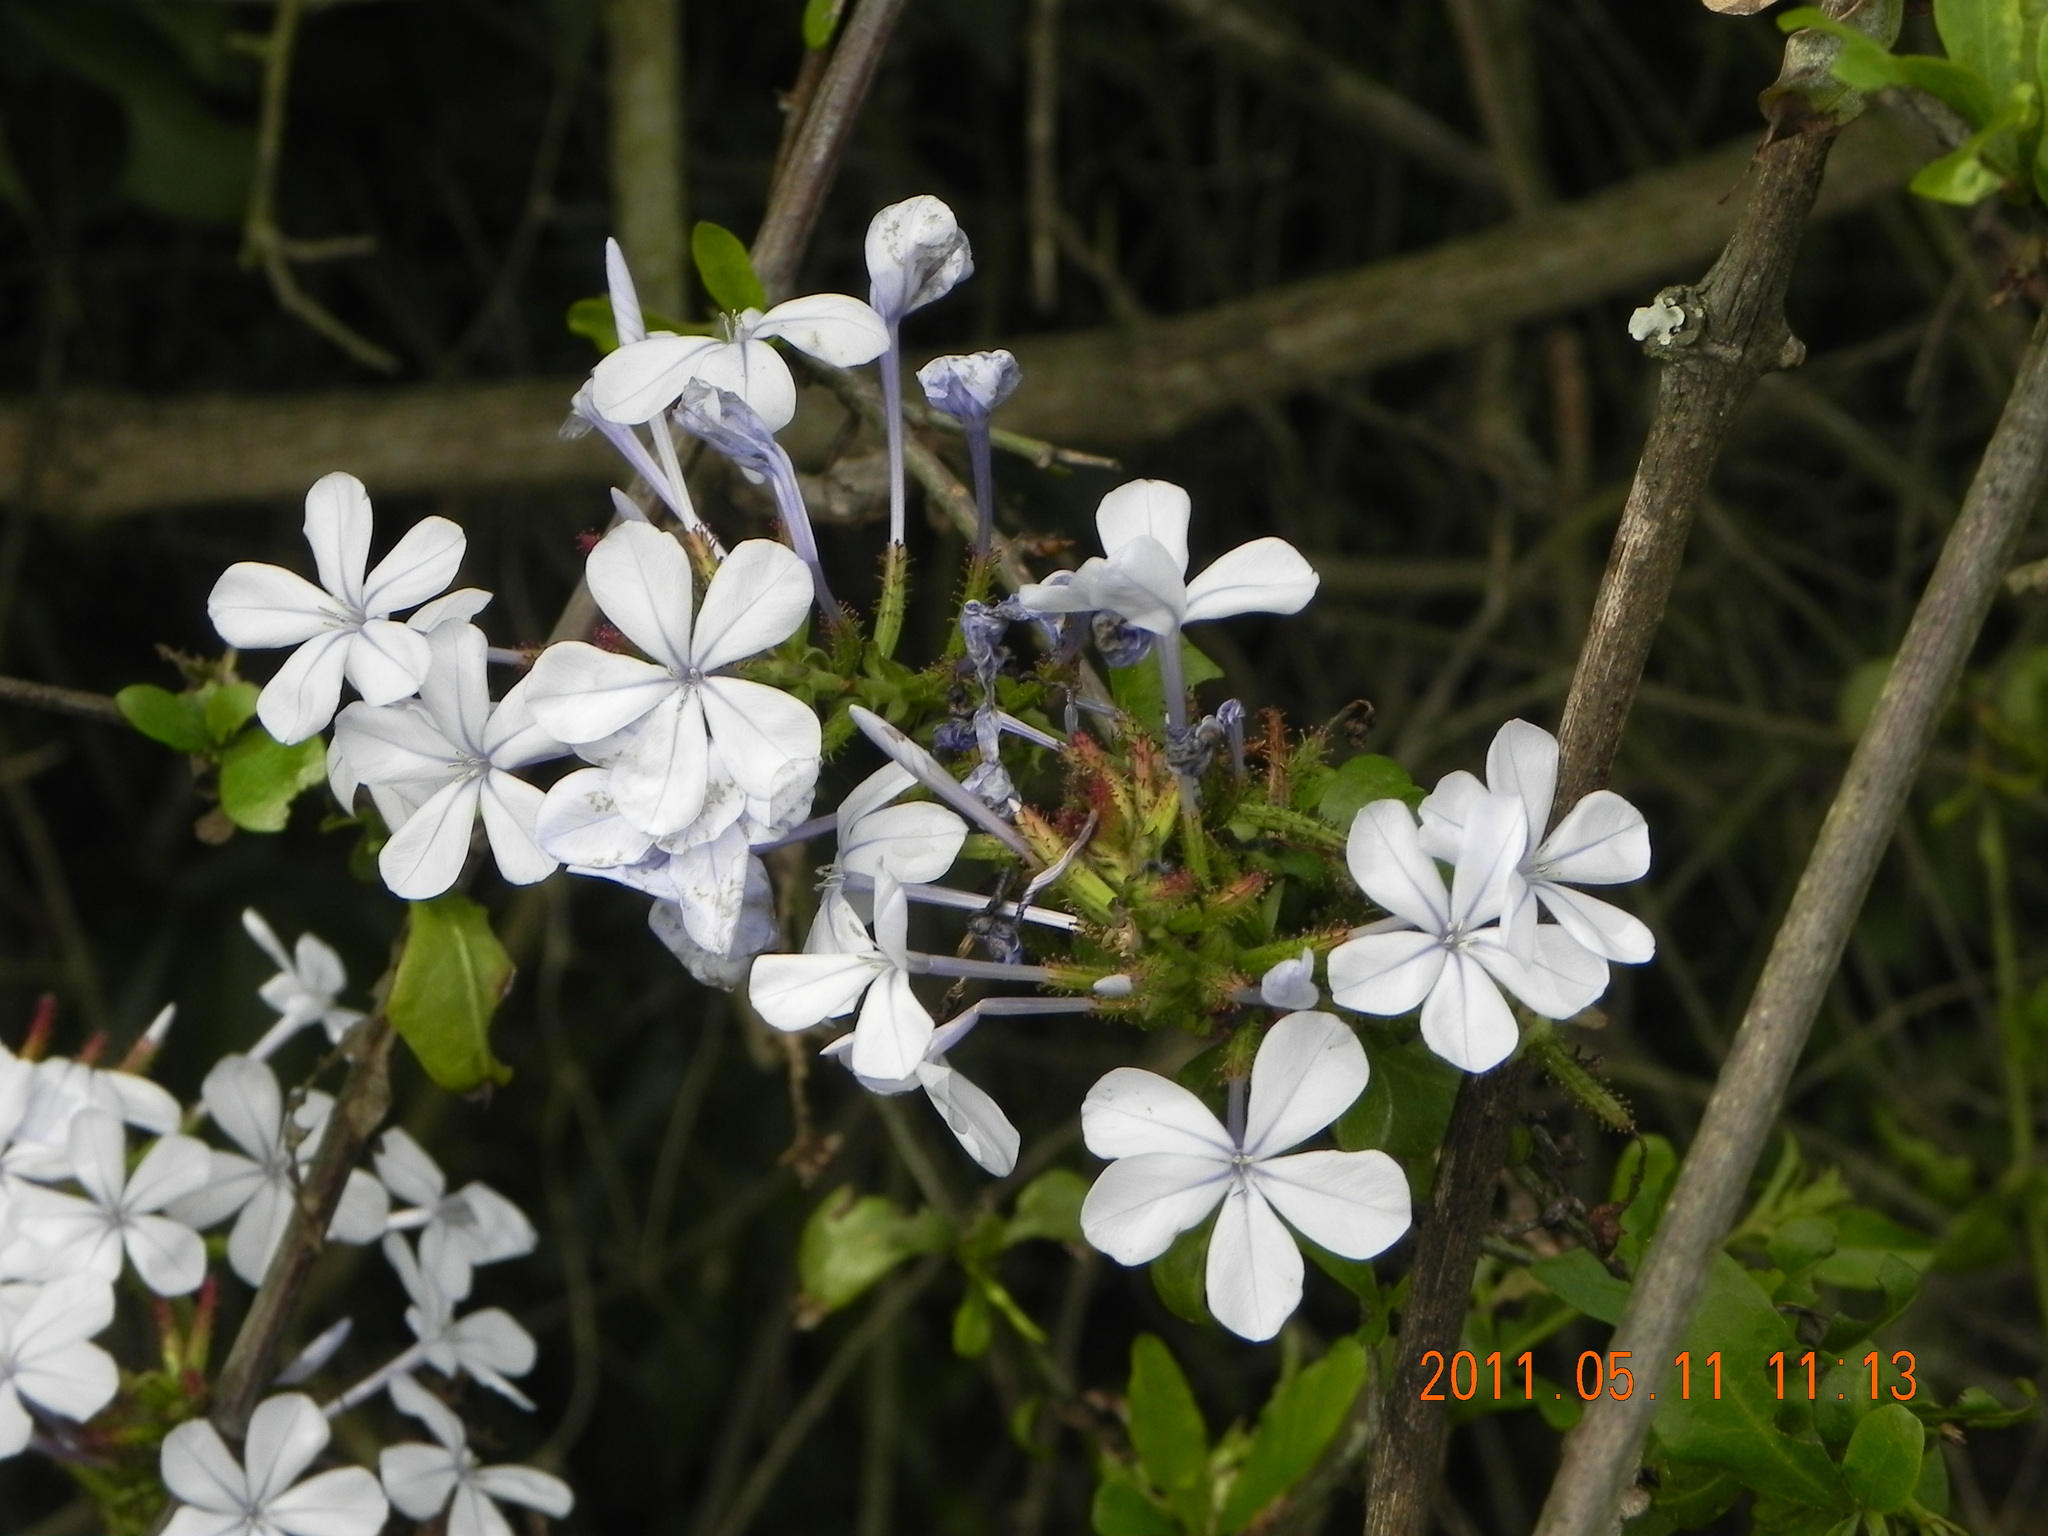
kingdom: Plantae
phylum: Tracheophyta
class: Magnoliopsida
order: Caryophyllales
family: Plumbaginaceae
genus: Plumbago
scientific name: Plumbago auriculata
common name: Cape leadwort
